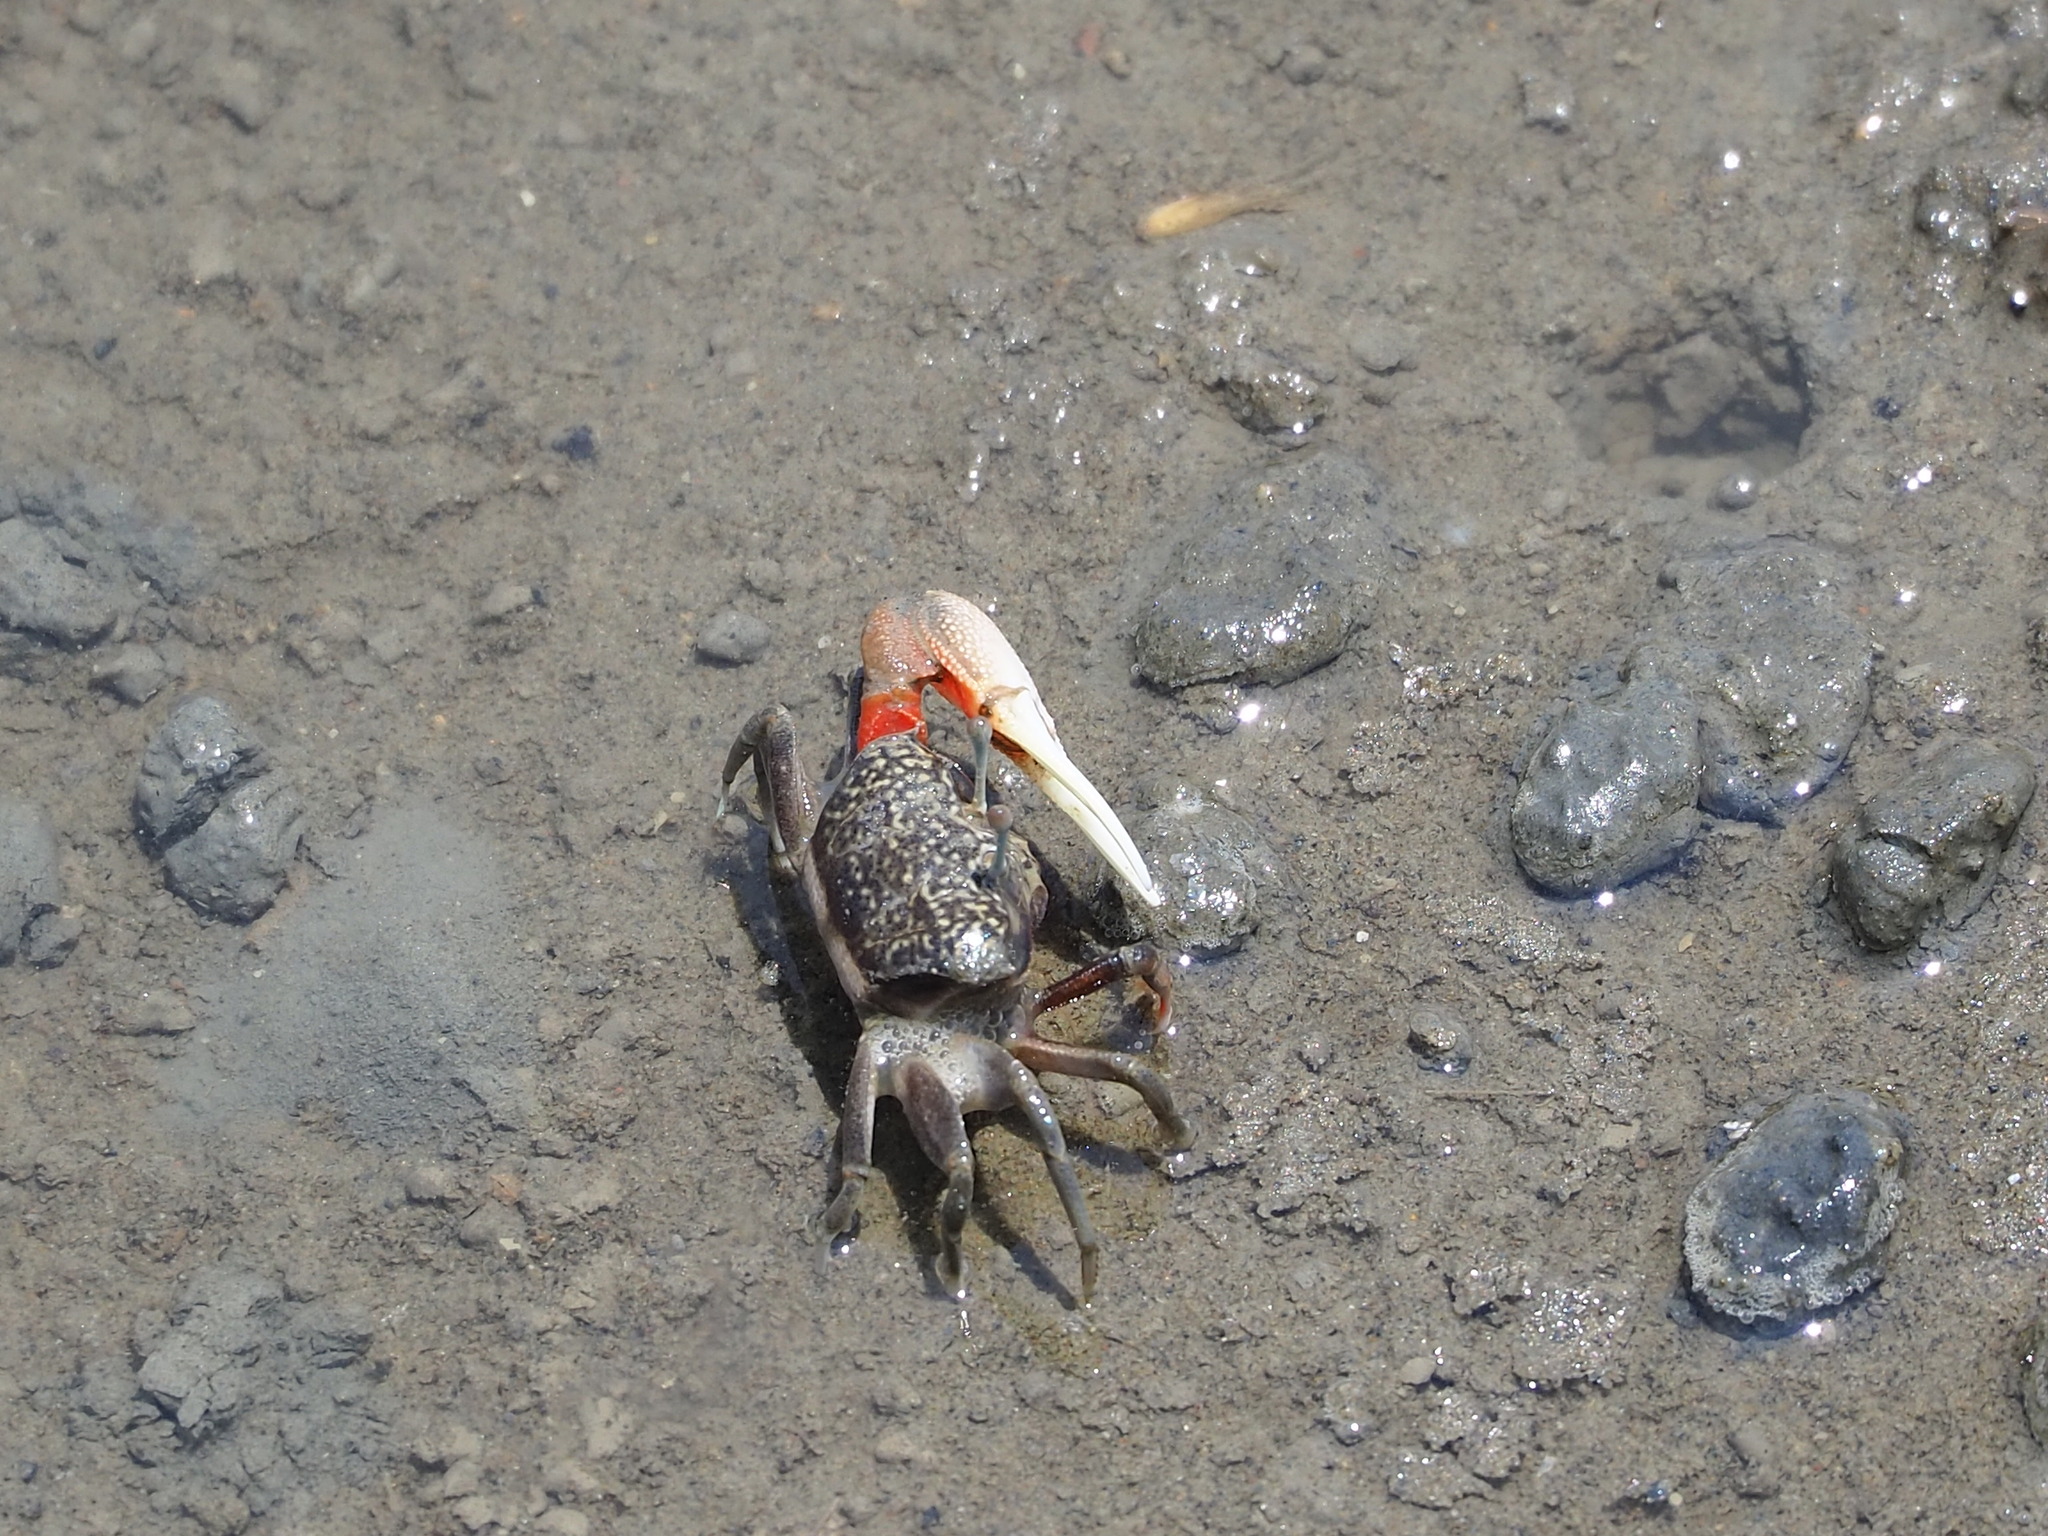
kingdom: Animalia
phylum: Arthropoda
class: Malacostraca
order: Decapoda
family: Ocypodidae
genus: Tubuca
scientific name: Tubuca arcuata
